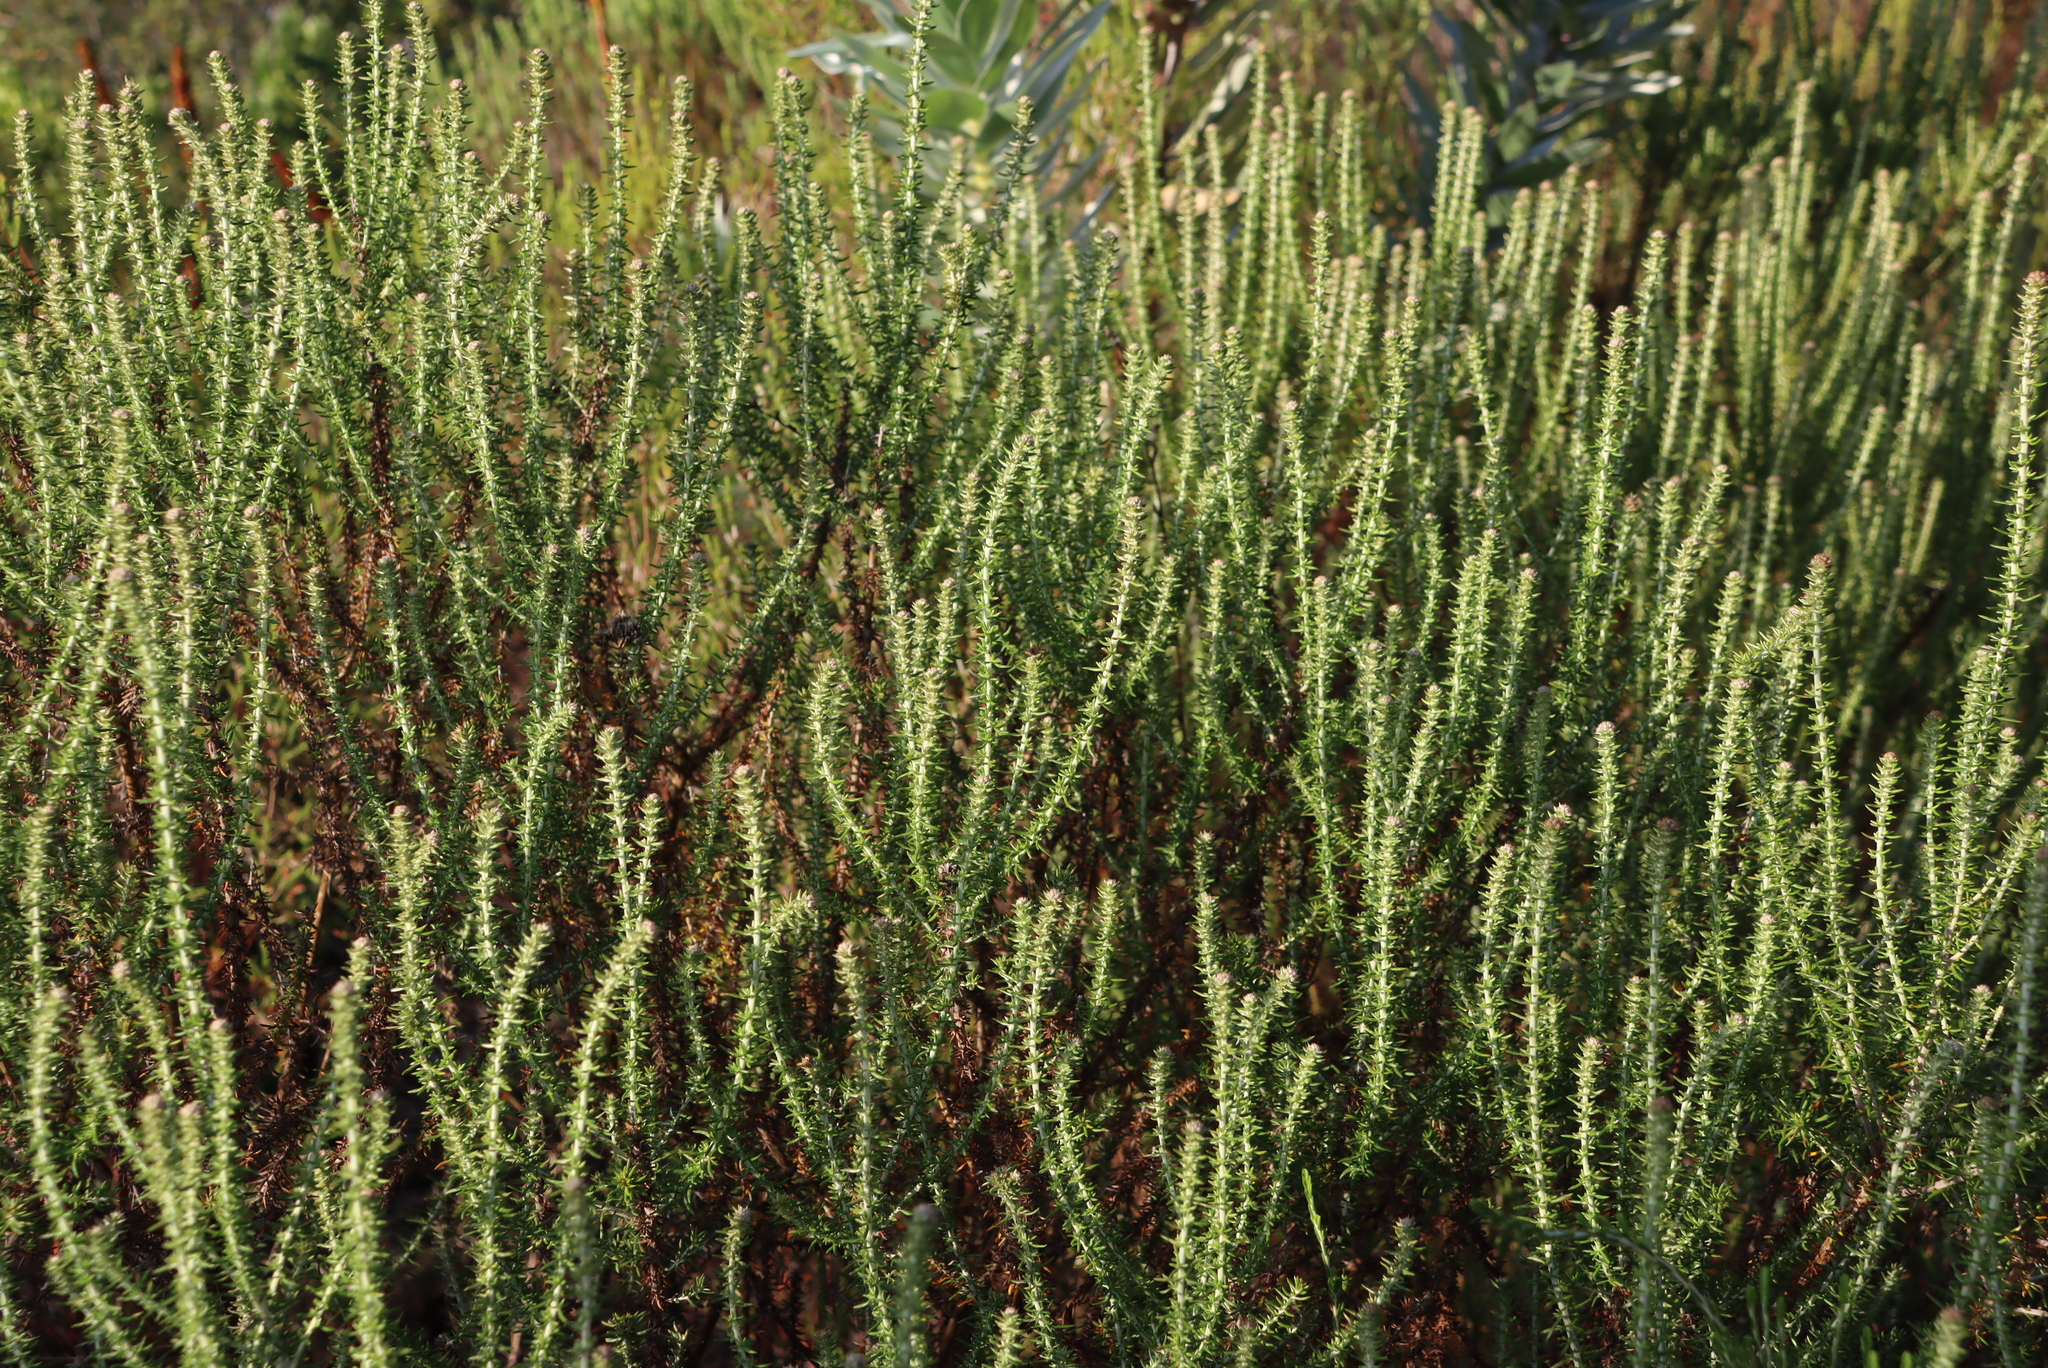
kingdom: Plantae
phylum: Tracheophyta
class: Magnoliopsida
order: Asterales
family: Asteraceae
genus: Metalasia
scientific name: Metalasia densa
